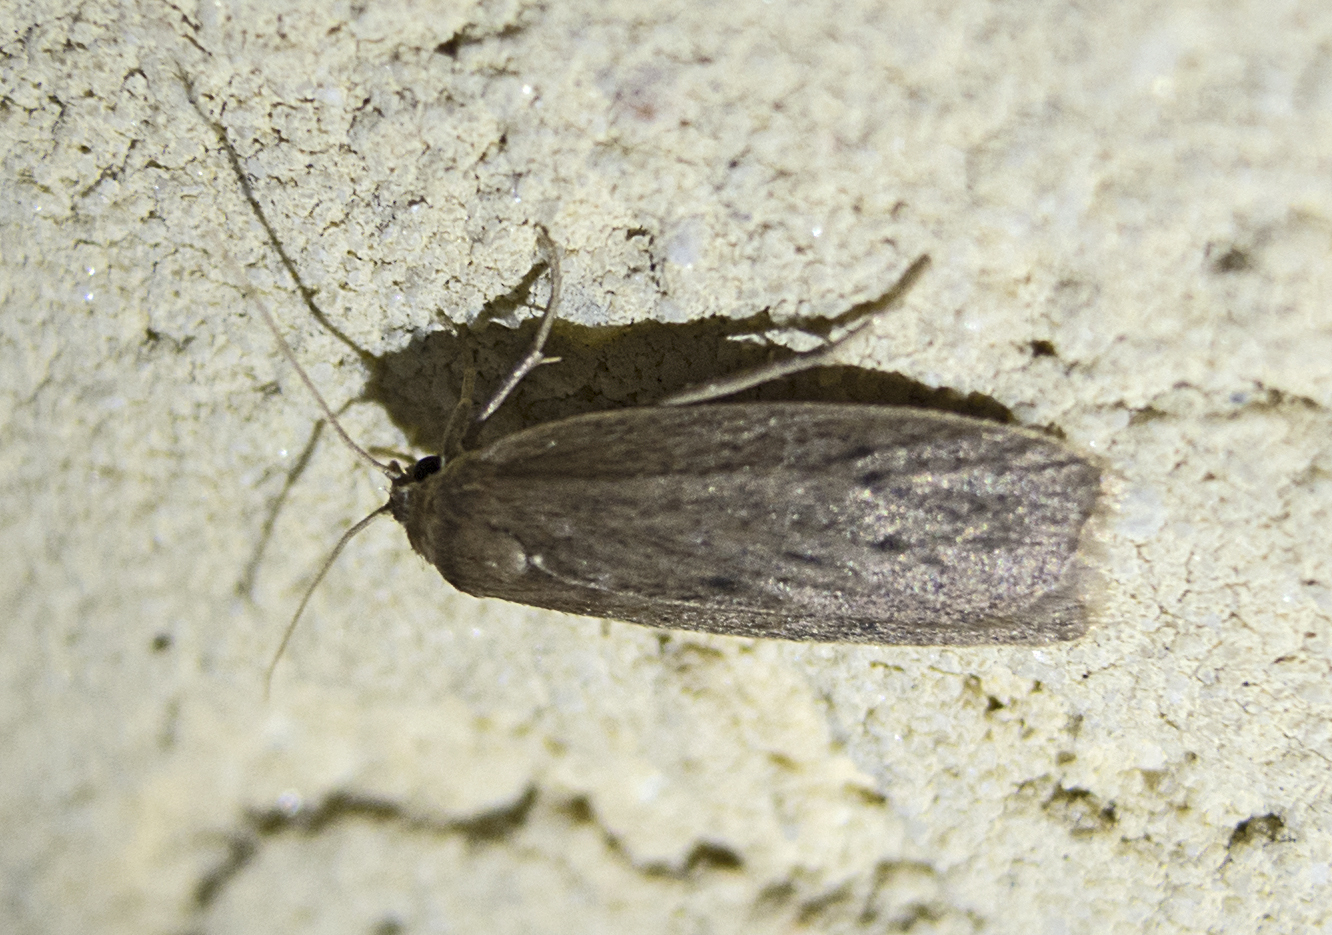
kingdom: Animalia
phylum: Arthropoda
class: Insecta
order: Lepidoptera
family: Erebidae
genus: Pelosia
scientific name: Pelosia obtusa
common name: Small dotted footman
